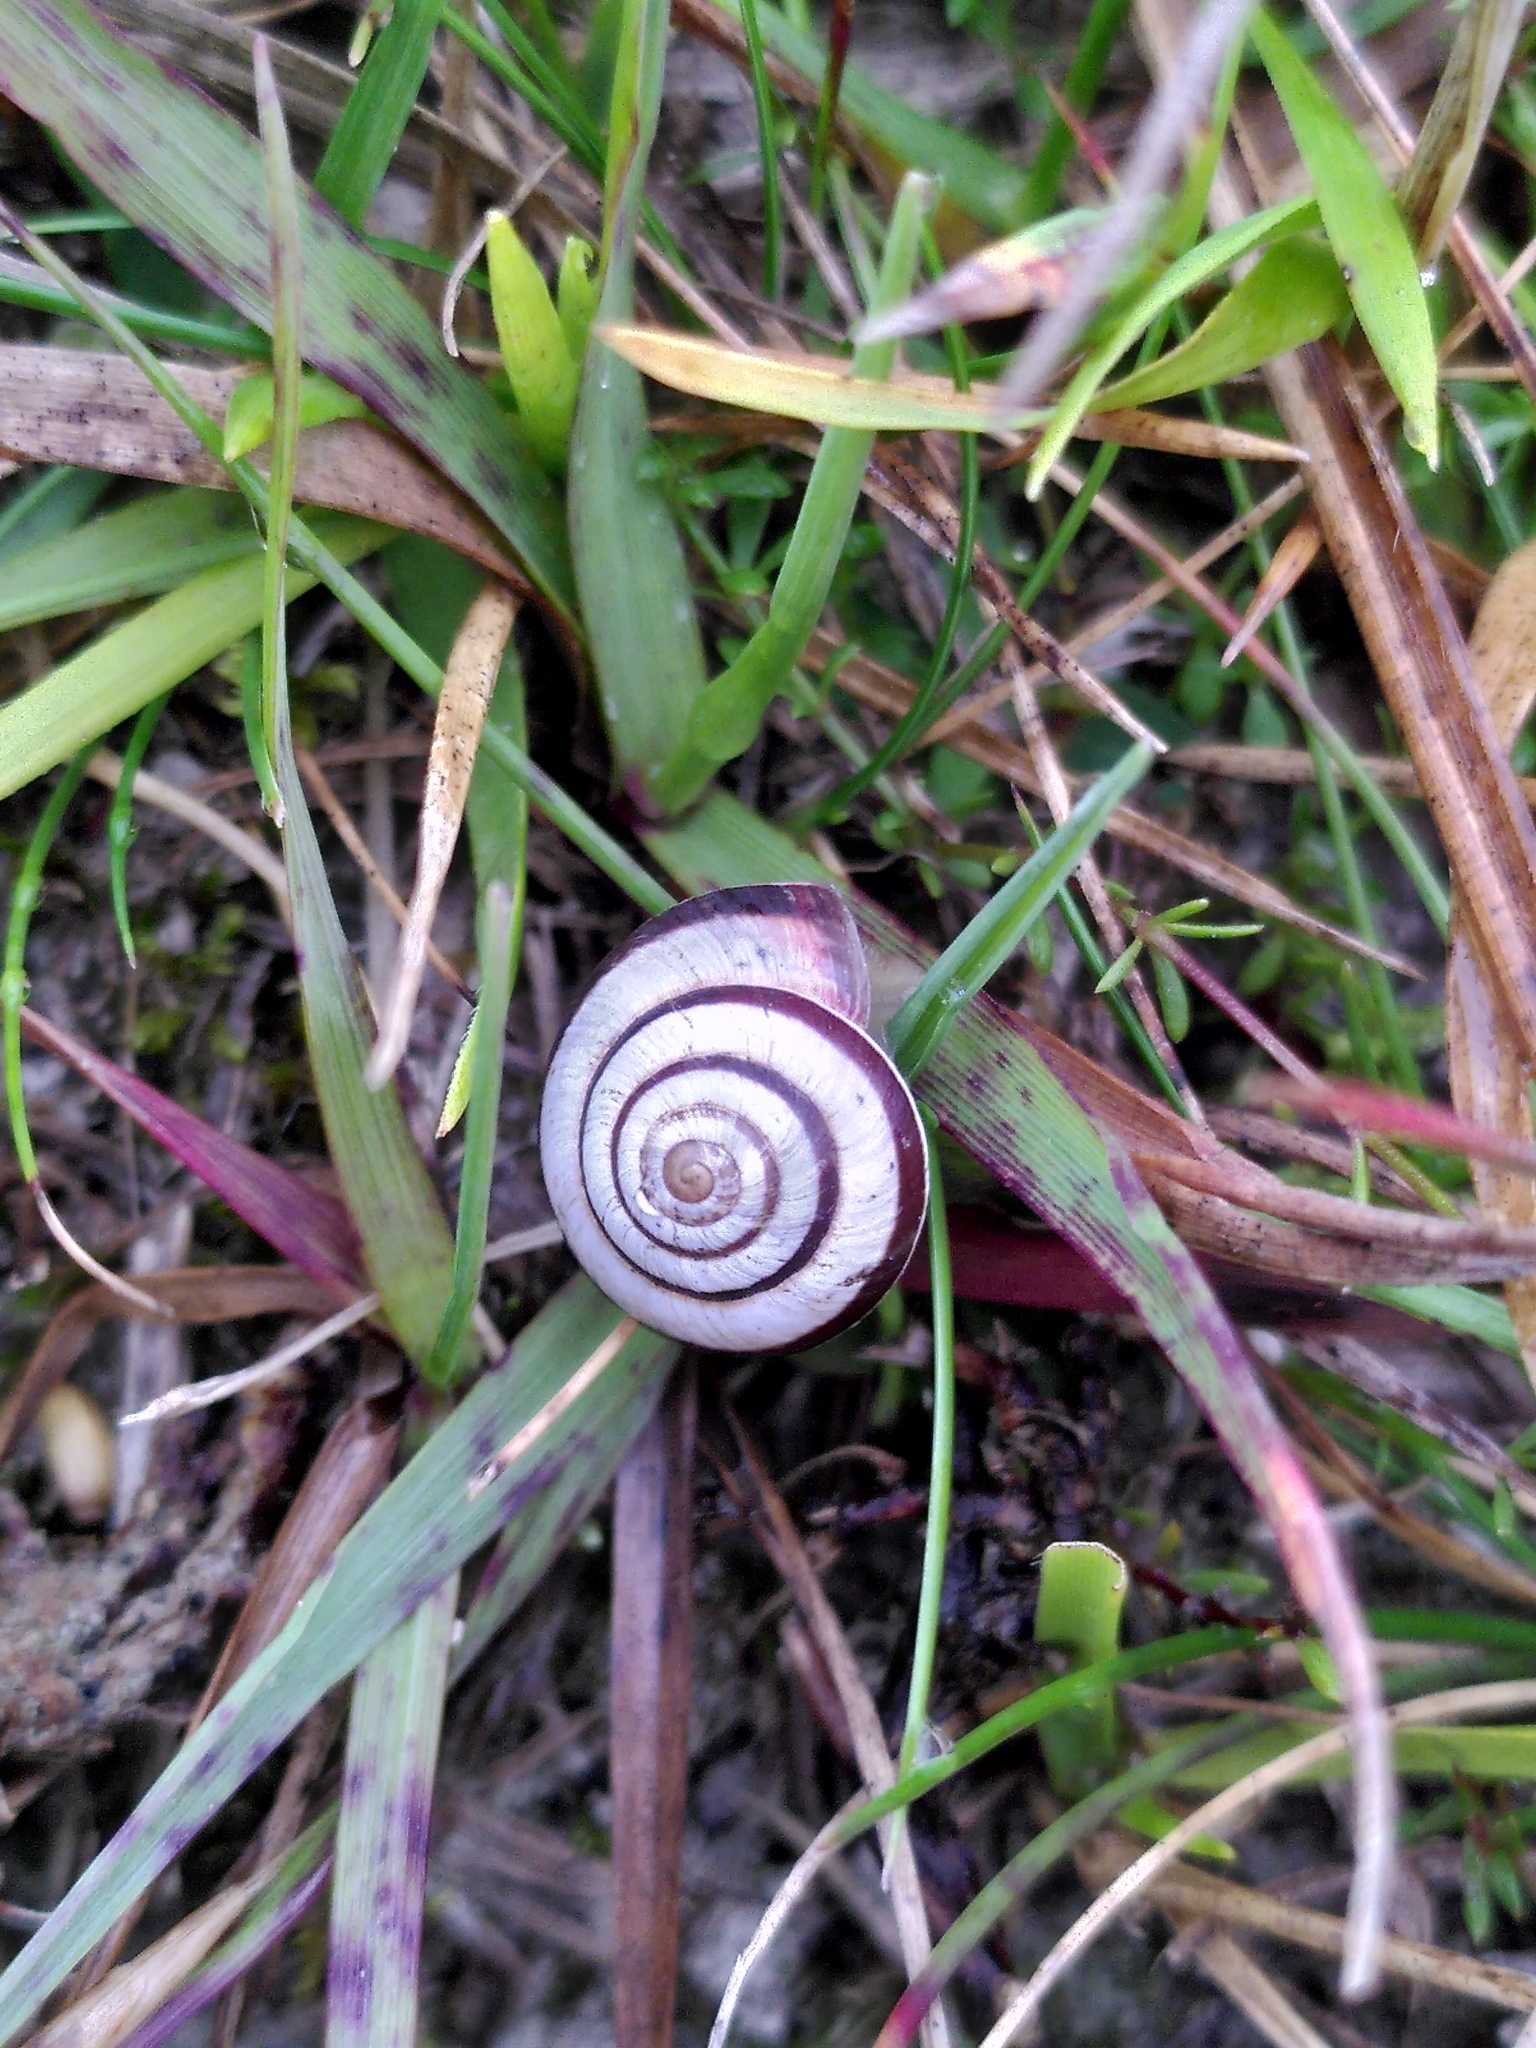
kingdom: Animalia
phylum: Mollusca
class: Gastropoda
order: Stylommatophora
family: Geomitridae
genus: Cernuella
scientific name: Cernuella virgata
